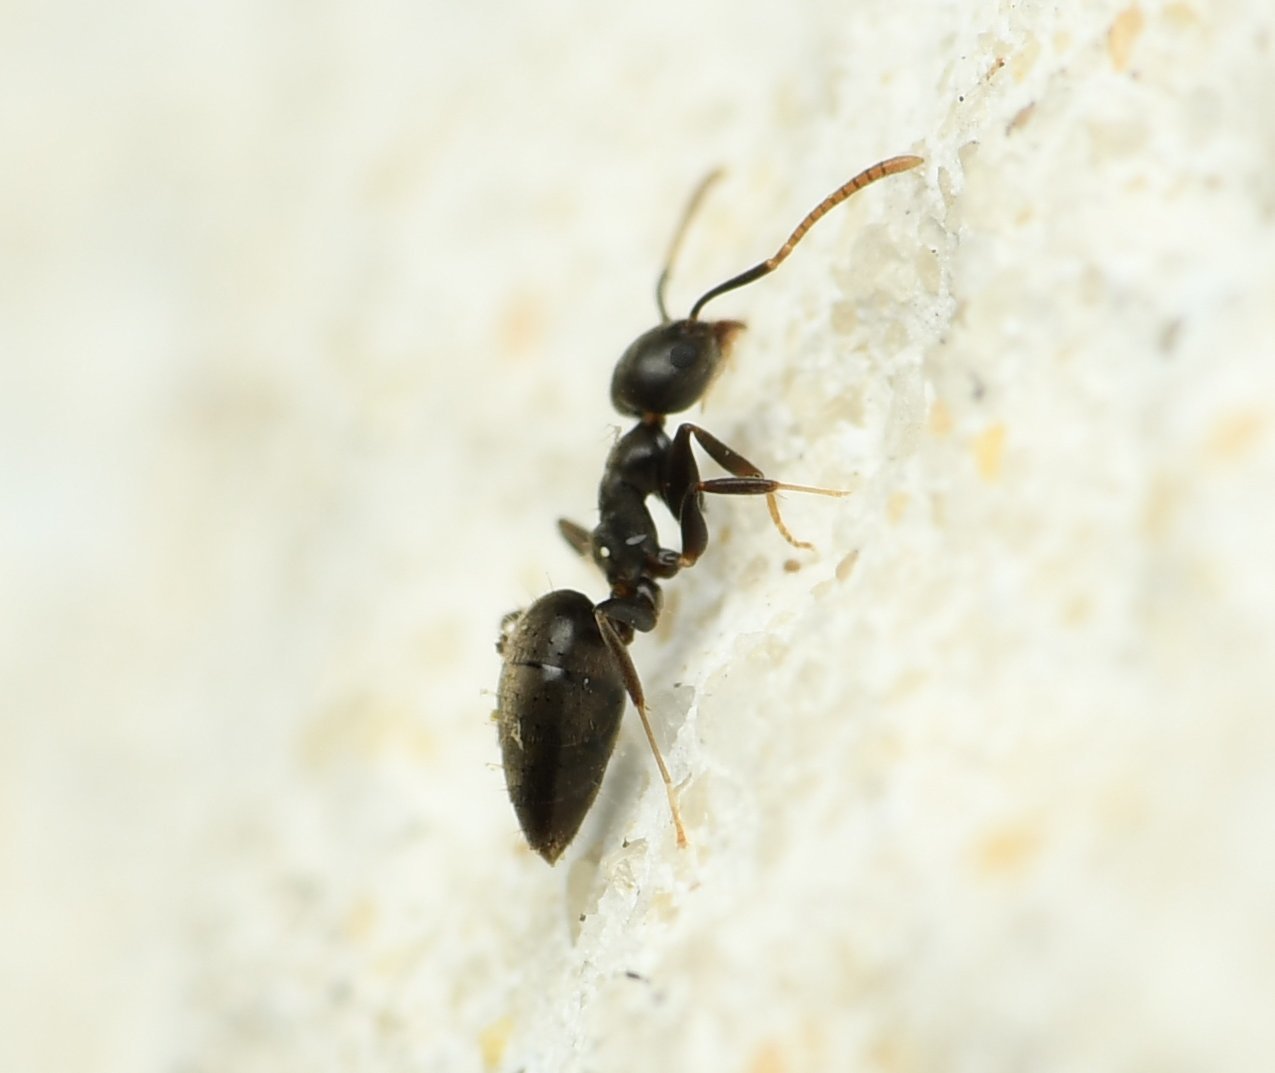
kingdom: Animalia
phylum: Arthropoda
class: Insecta
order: Hymenoptera
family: Formicidae
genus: Technomyrmex
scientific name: Technomyrmex difficilis
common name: Ant
